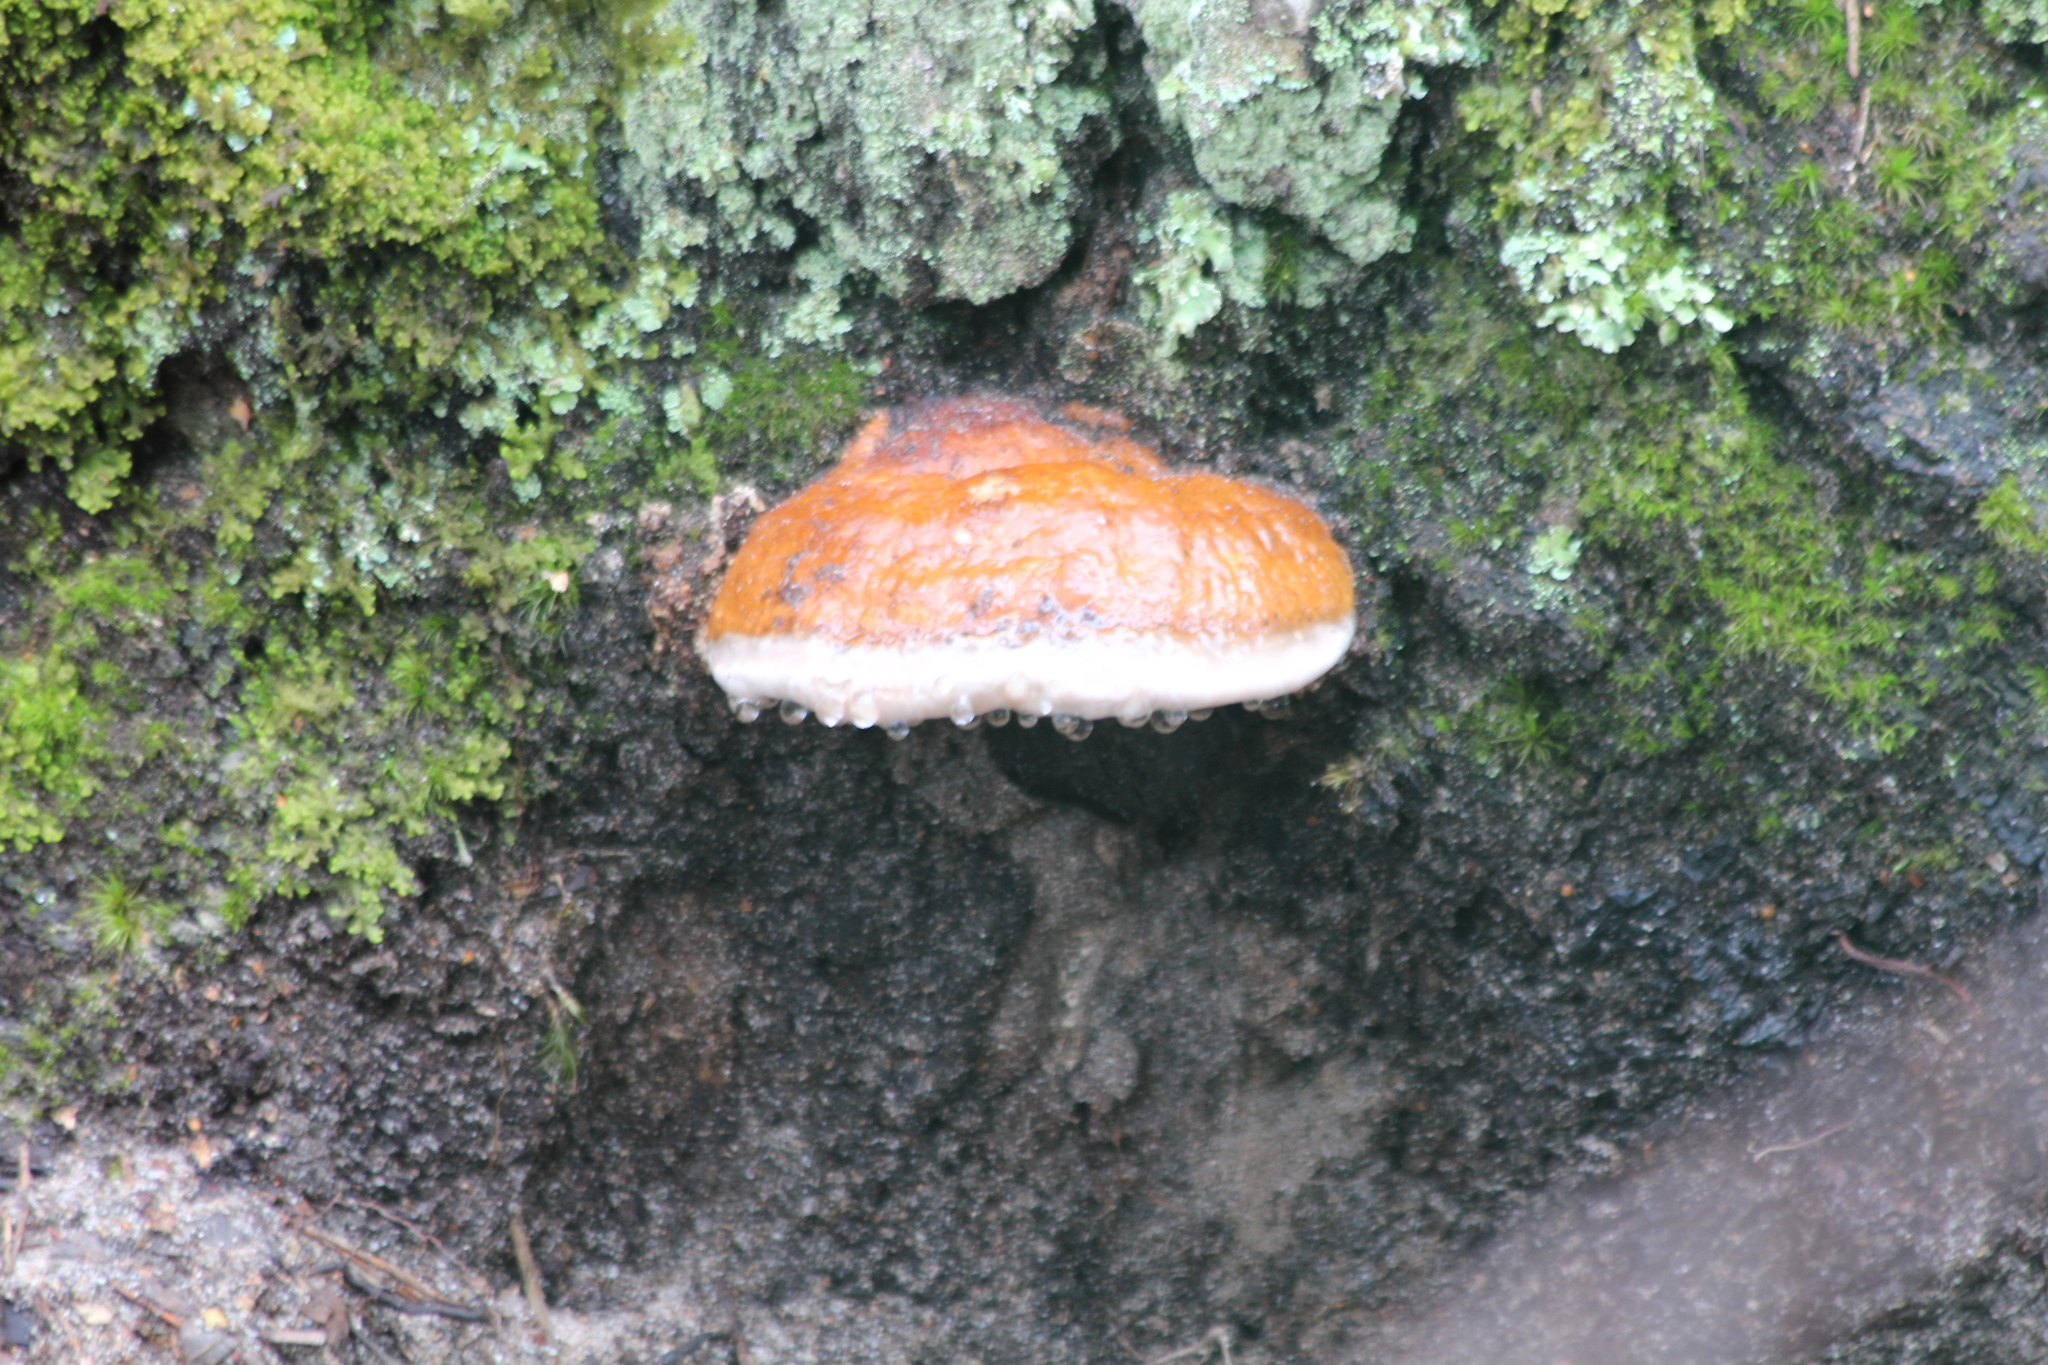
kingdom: Fungi
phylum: Basidiomycota
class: Agaricomycetes
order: Polyporales
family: Fomitopsidaceae
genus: Fomitopsis
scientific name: Fomitopsis pinicola
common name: Red-belted bracket
